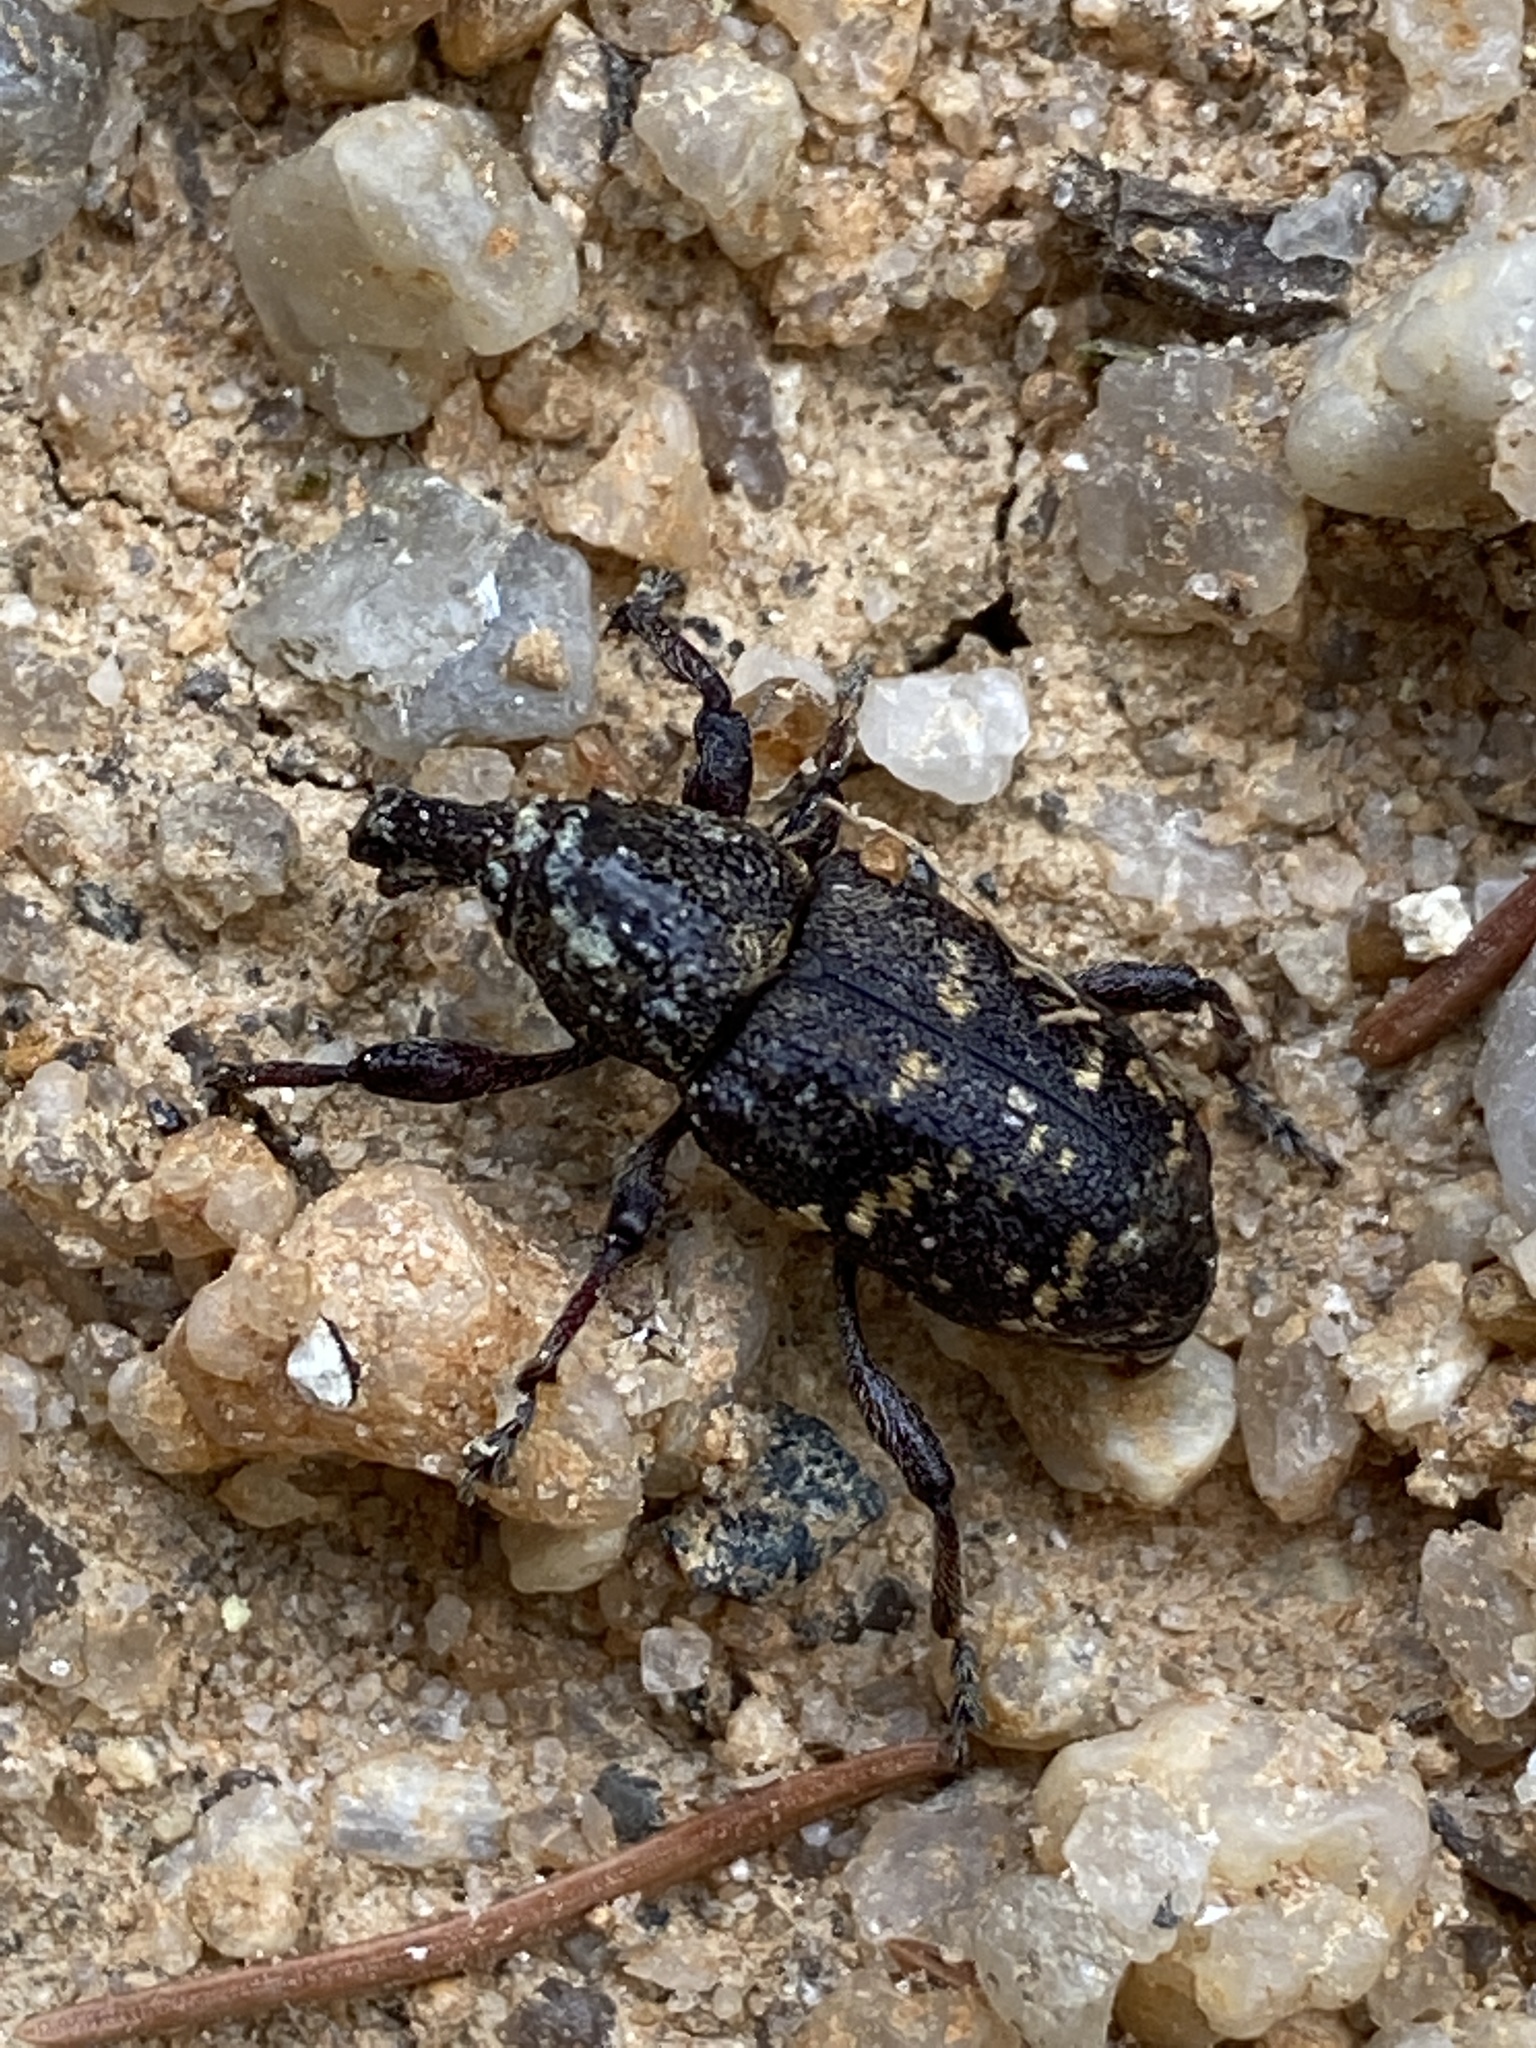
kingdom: Animalia
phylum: Arthropoda
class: Insecta
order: Coleoptera
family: Curculionidae
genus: Hylobius
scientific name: Hylobius abietis
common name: Large pine weevil
